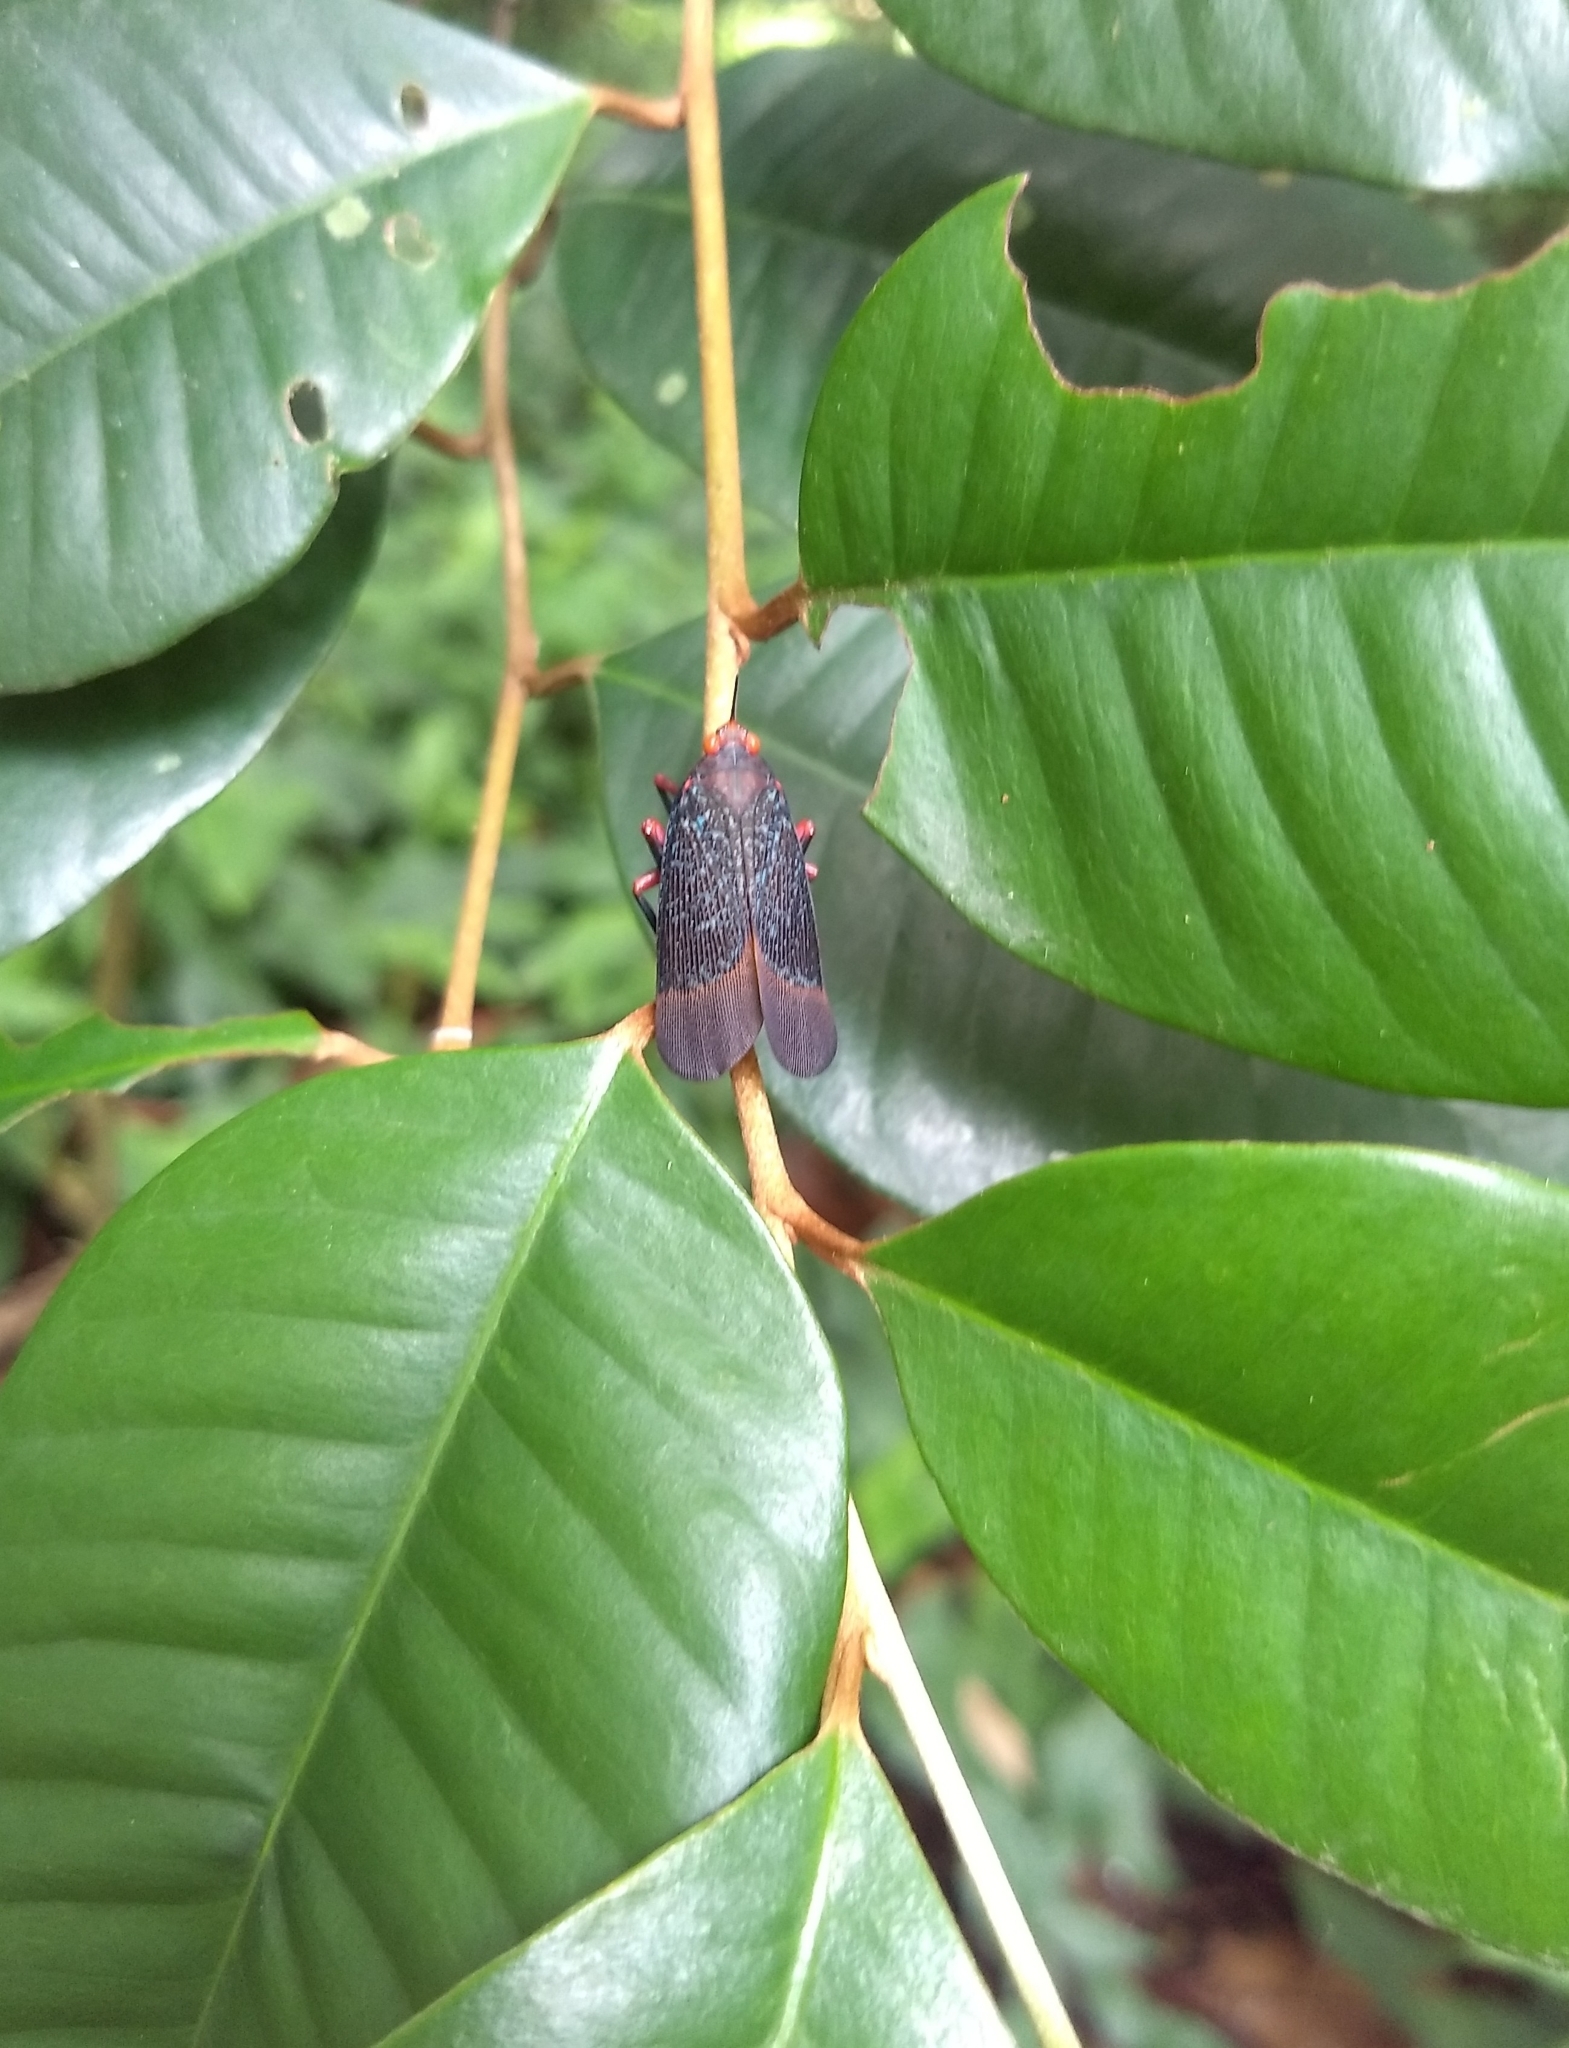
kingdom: Animalia
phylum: Arthropoda
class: Insecta
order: Hemiptera
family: Fulgoridae
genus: Kalidasa
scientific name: Kalidasa lanata
